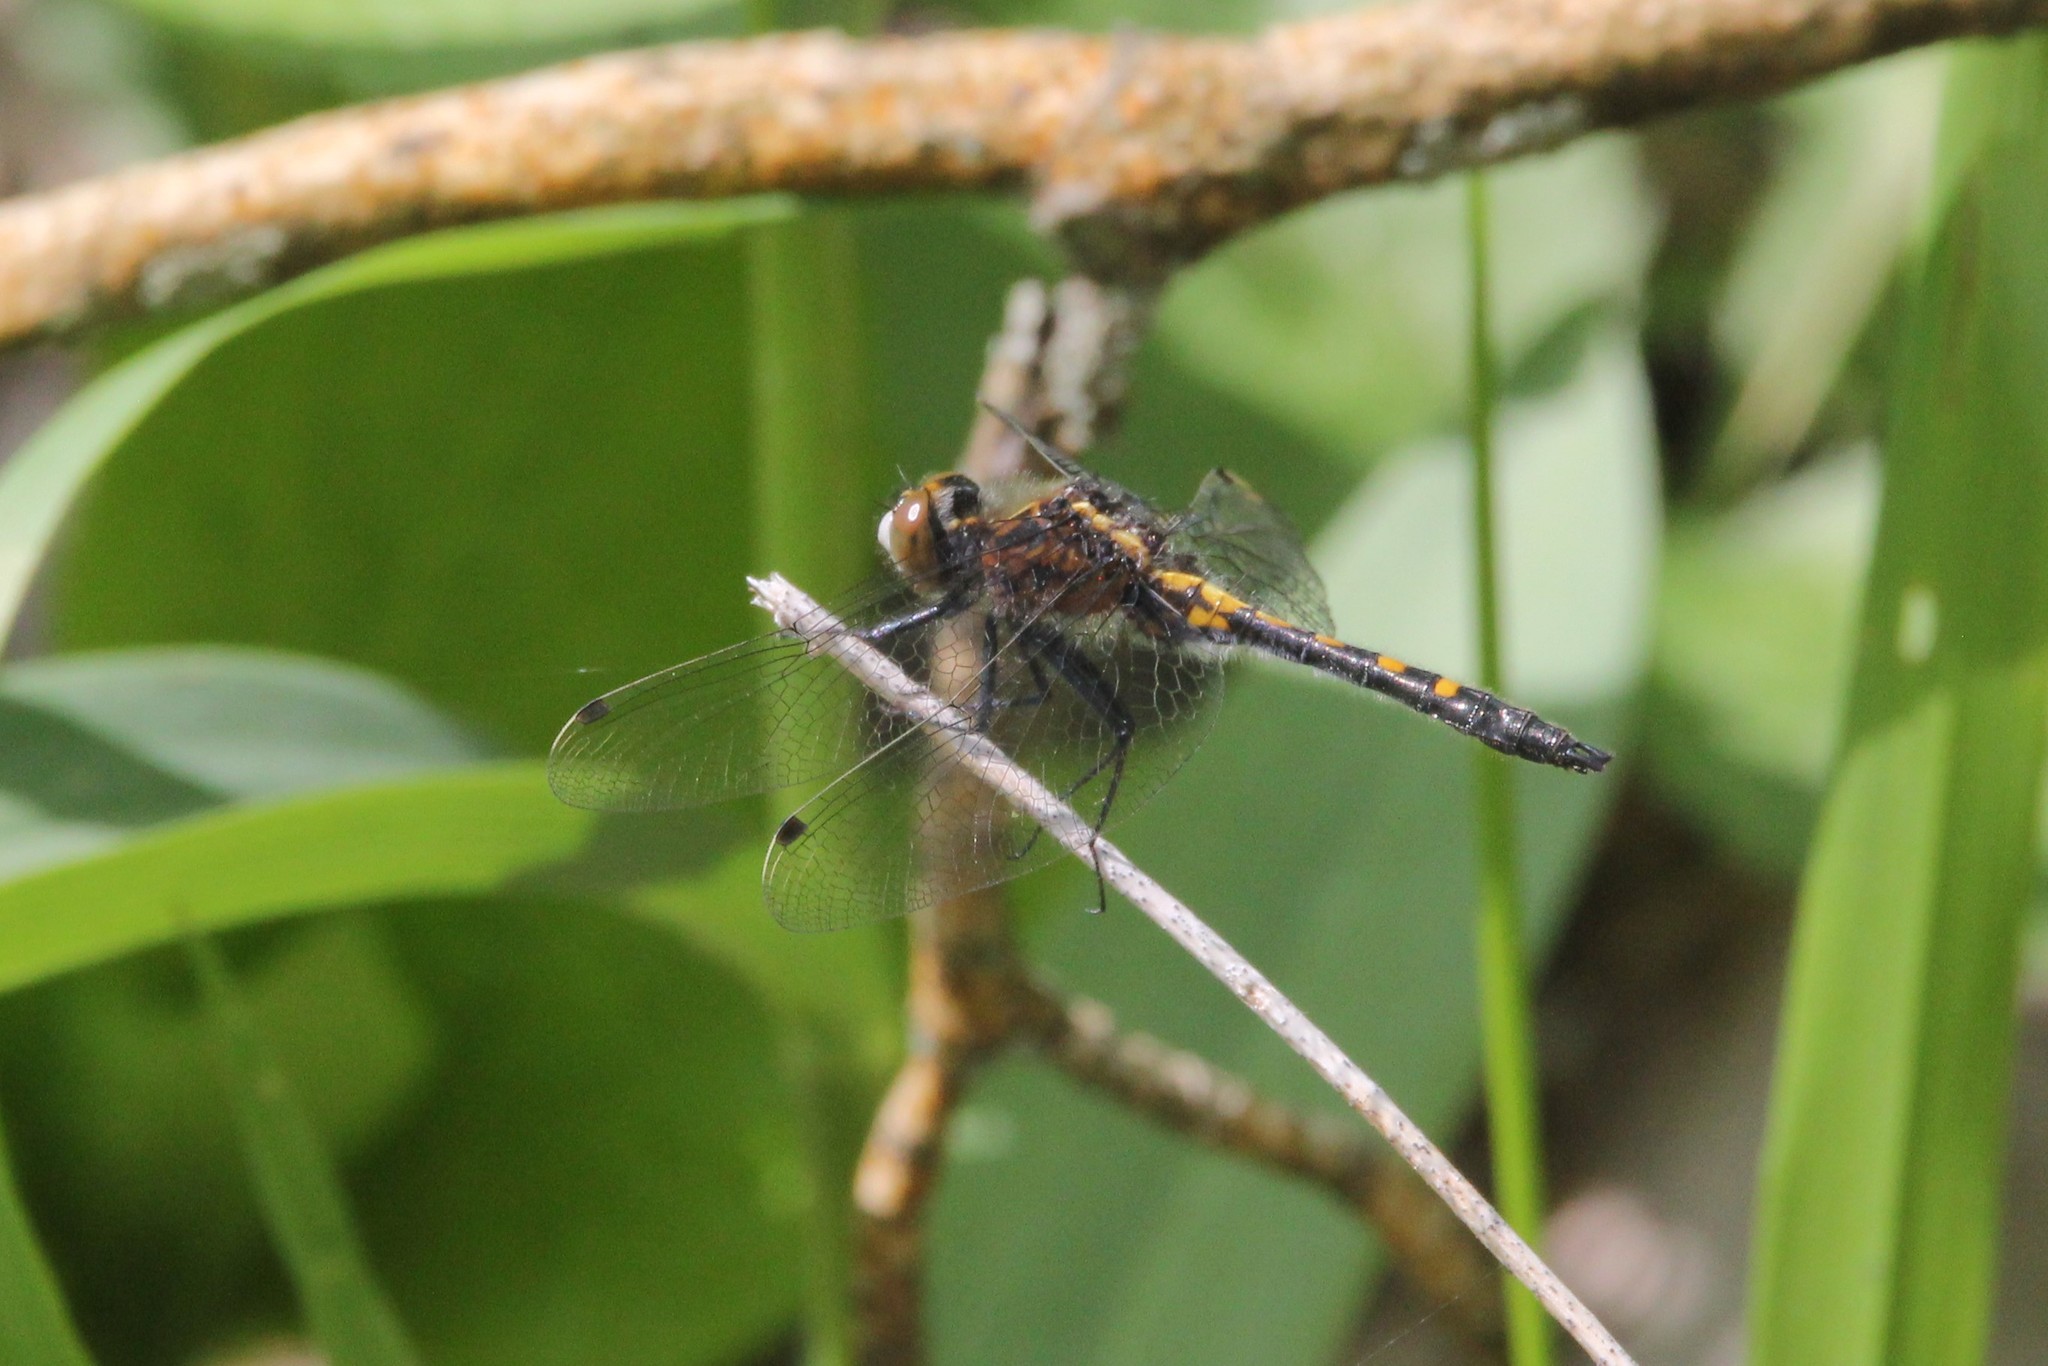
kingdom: Animalia
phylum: Arthropoda
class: Insecta
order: Odonata
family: Libellulidae
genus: Leucorrhinia
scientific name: Leucorrhinia intacta
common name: Dot-tailed whiteface
